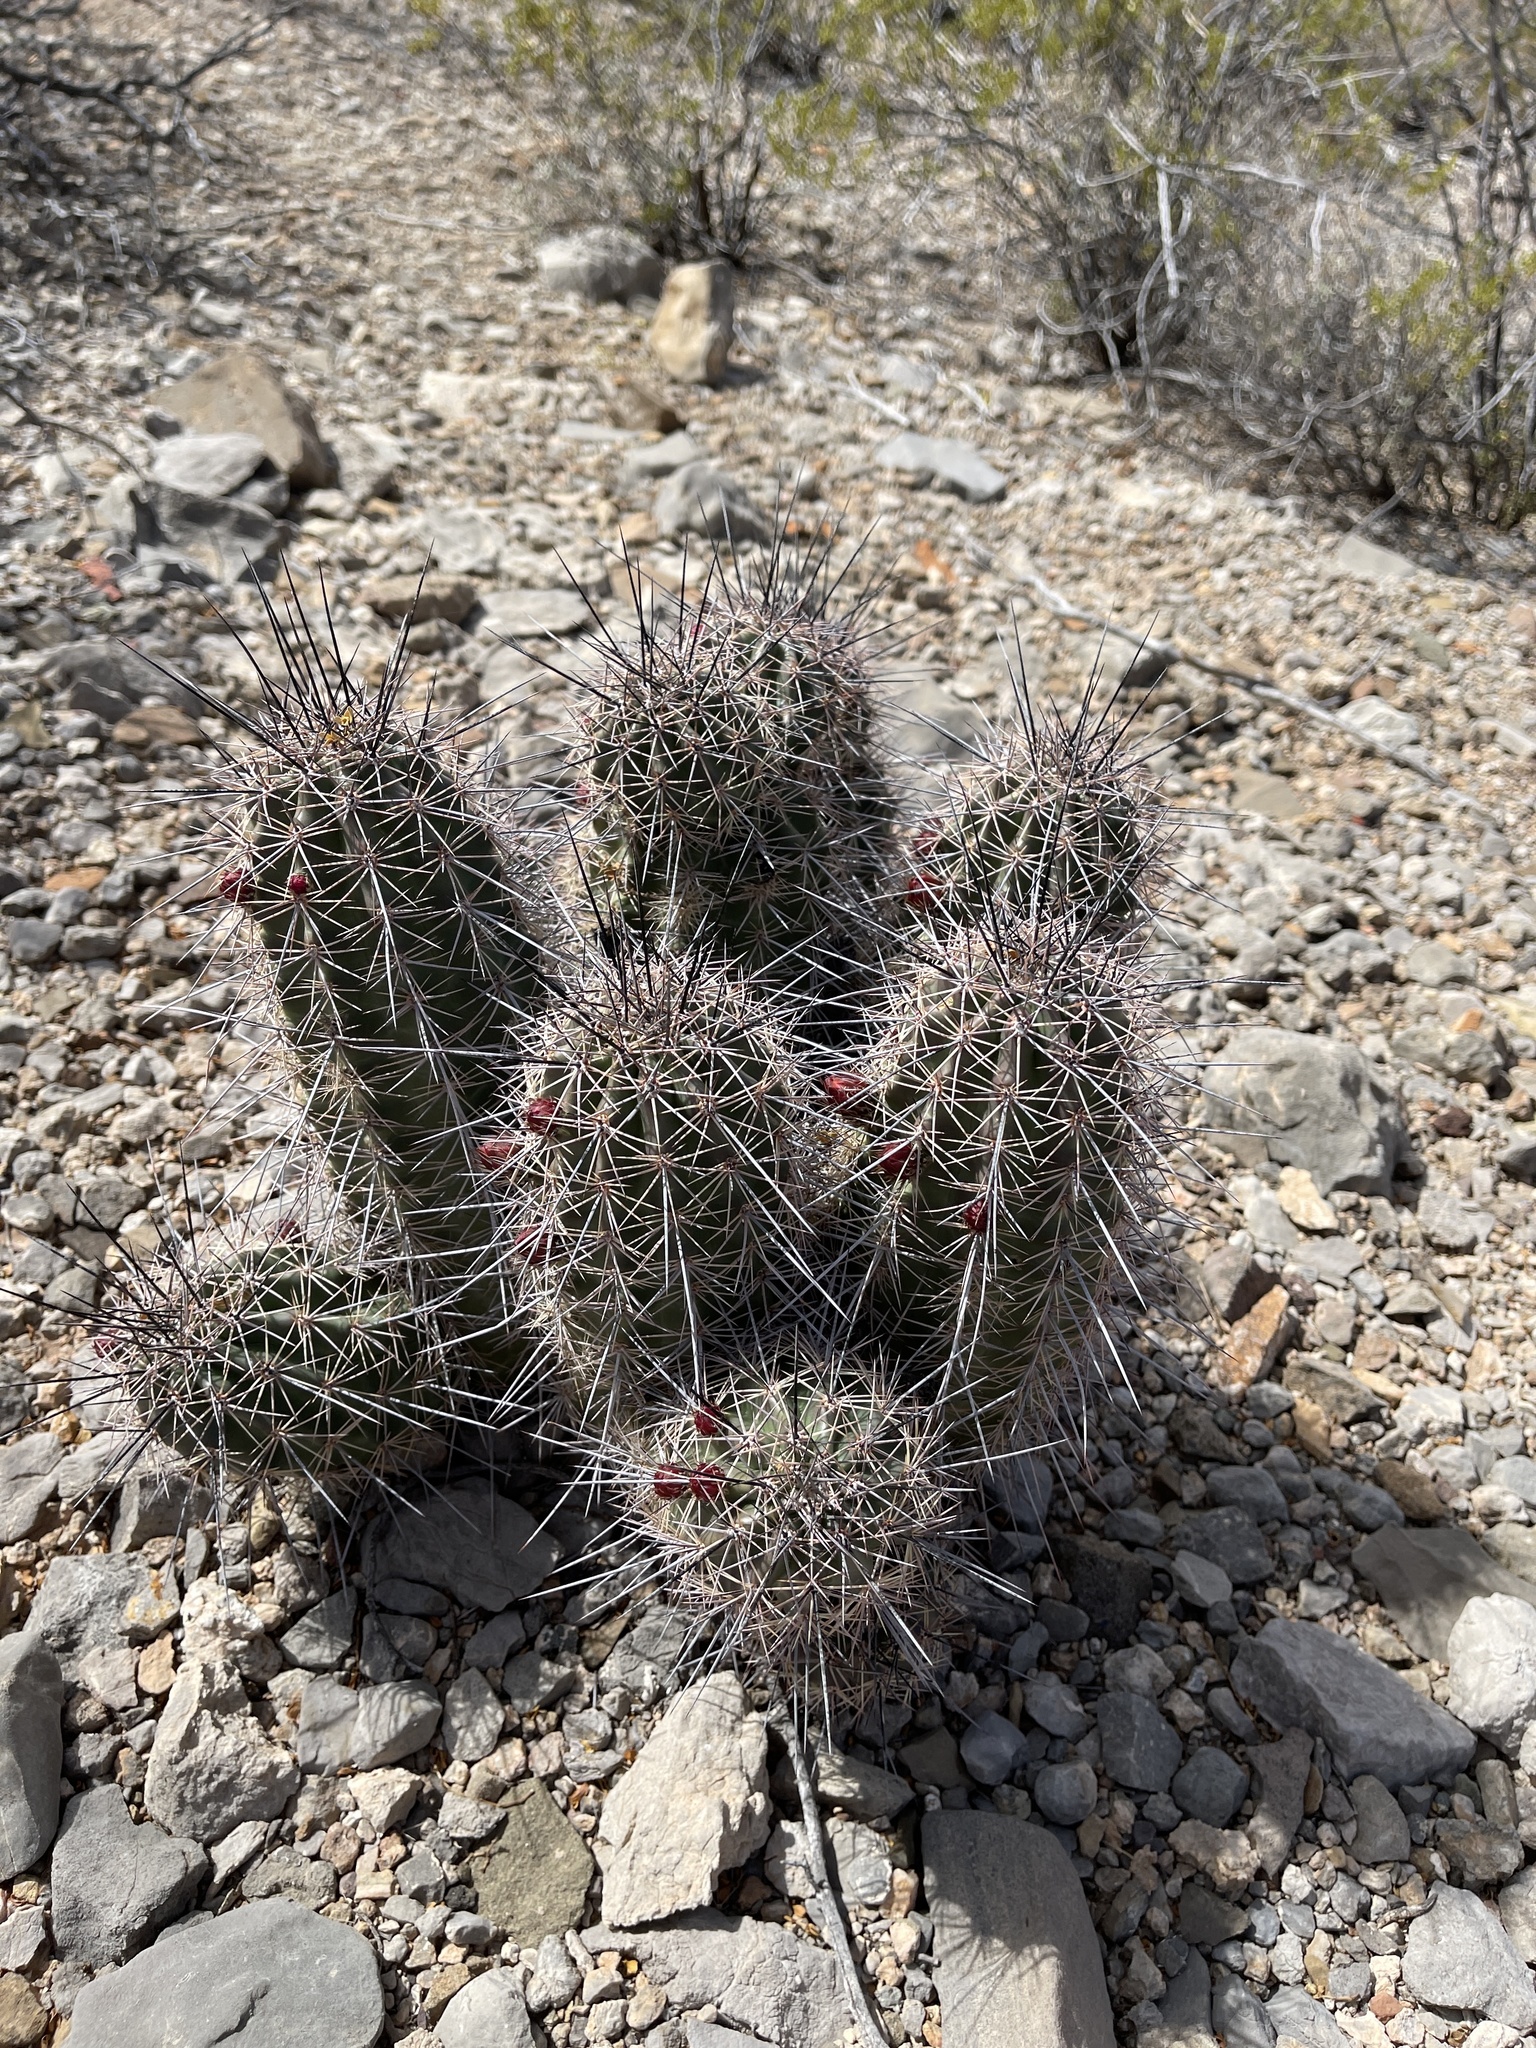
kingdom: Plantae
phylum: Tracheophyta
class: Magnoliopsida
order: Caryophyllales
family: Cactaceae
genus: Echinocereus
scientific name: Echinocereus coccineus
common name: Scarlet hedgehog cactus
